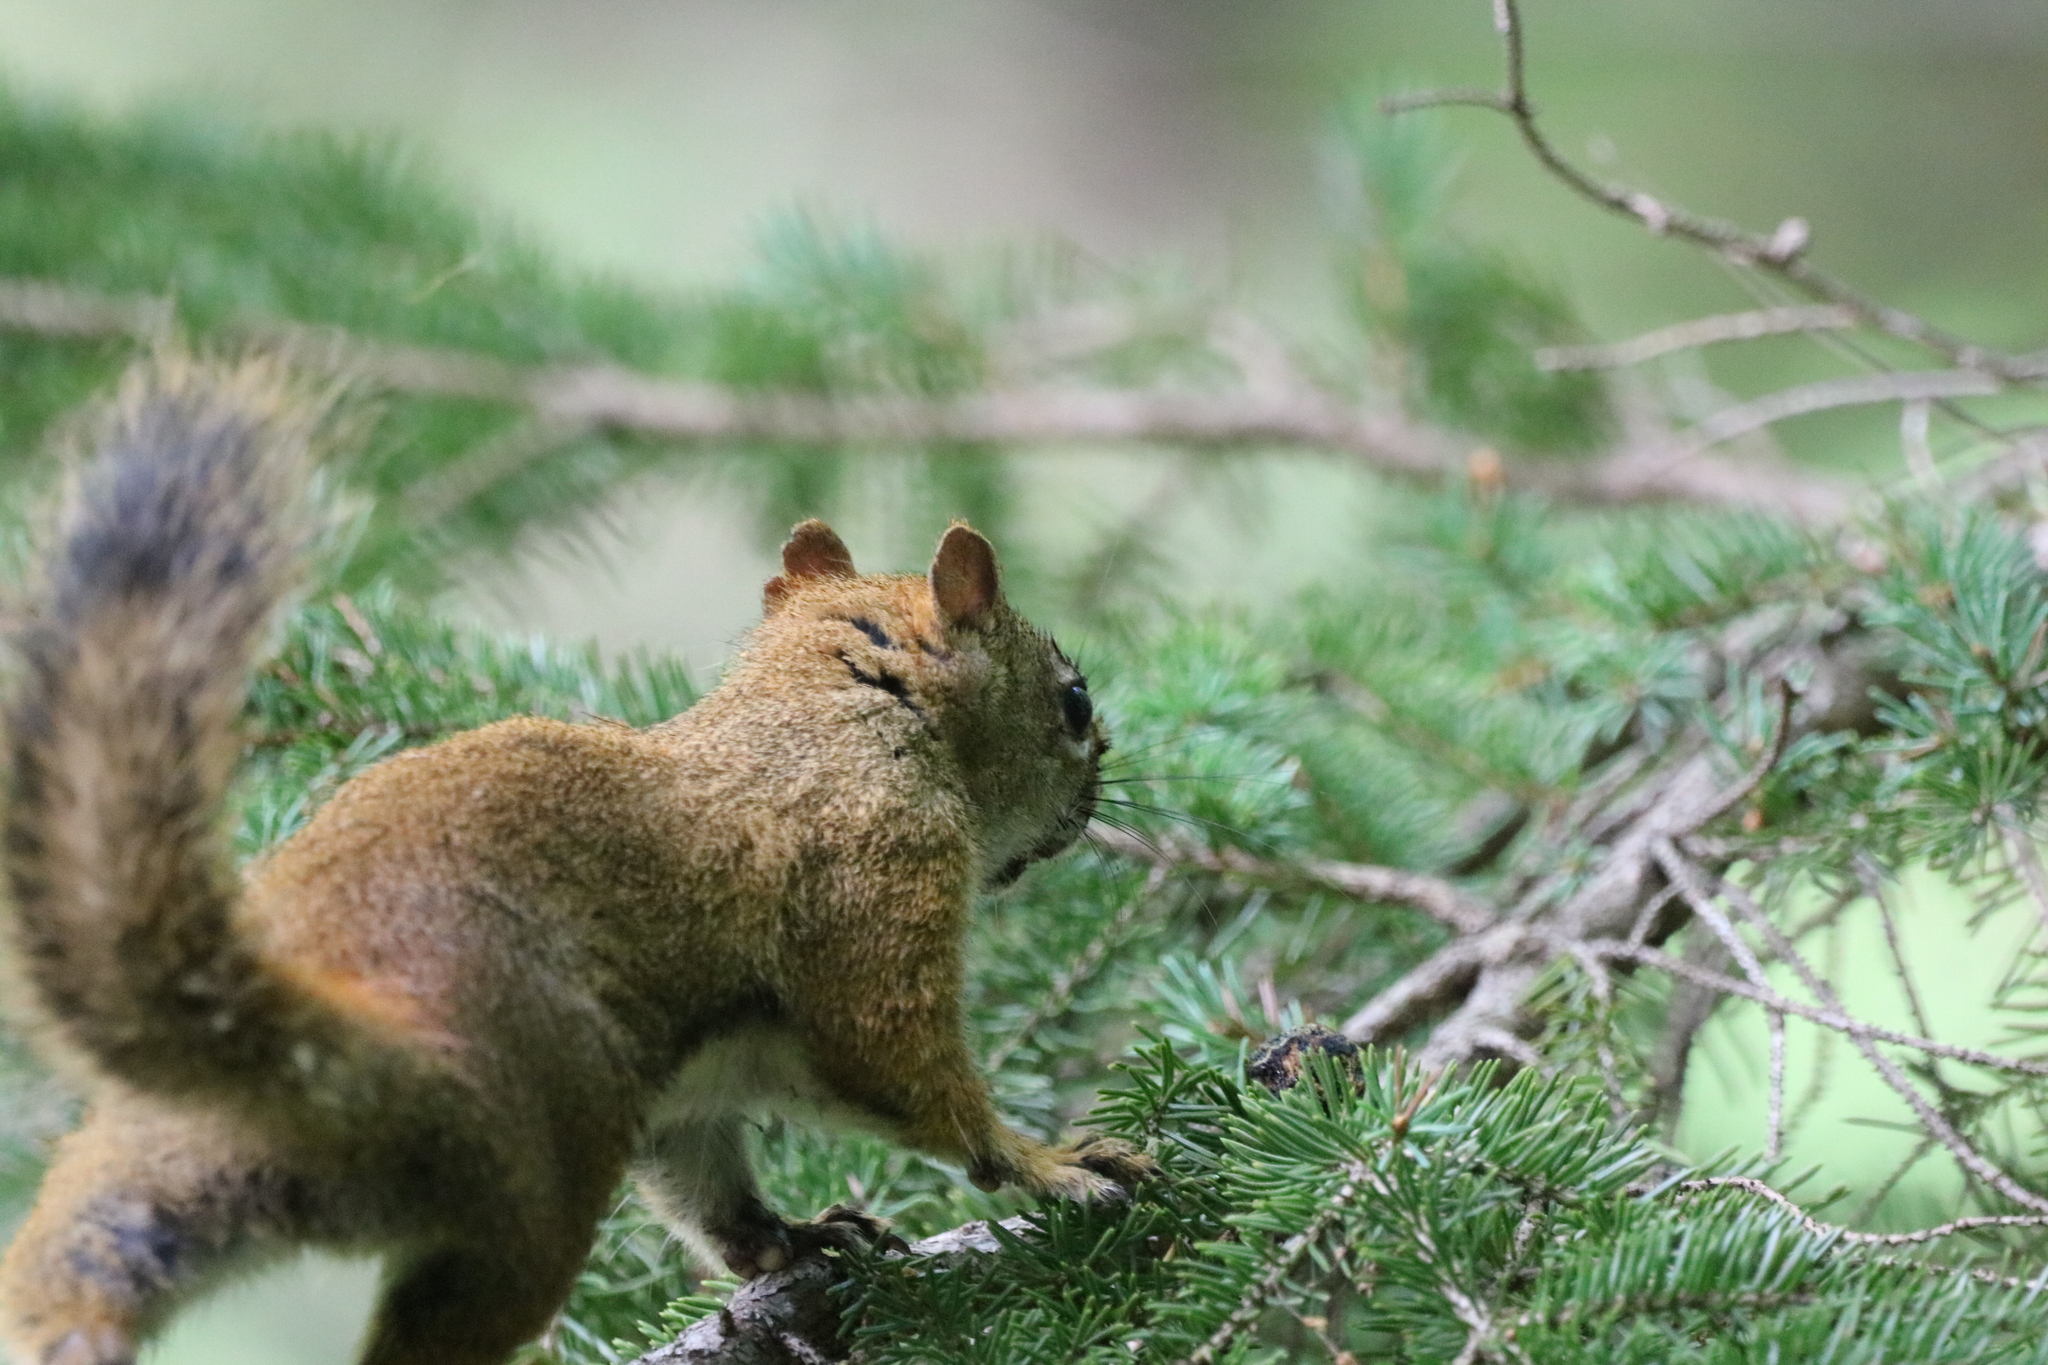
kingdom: Animalia
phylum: Chordata
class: Mammalia
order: Rodentia
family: Sciuridae
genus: Tamiasciurus
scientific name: Tamiasciurus hudsonicus
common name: Red squirrel
